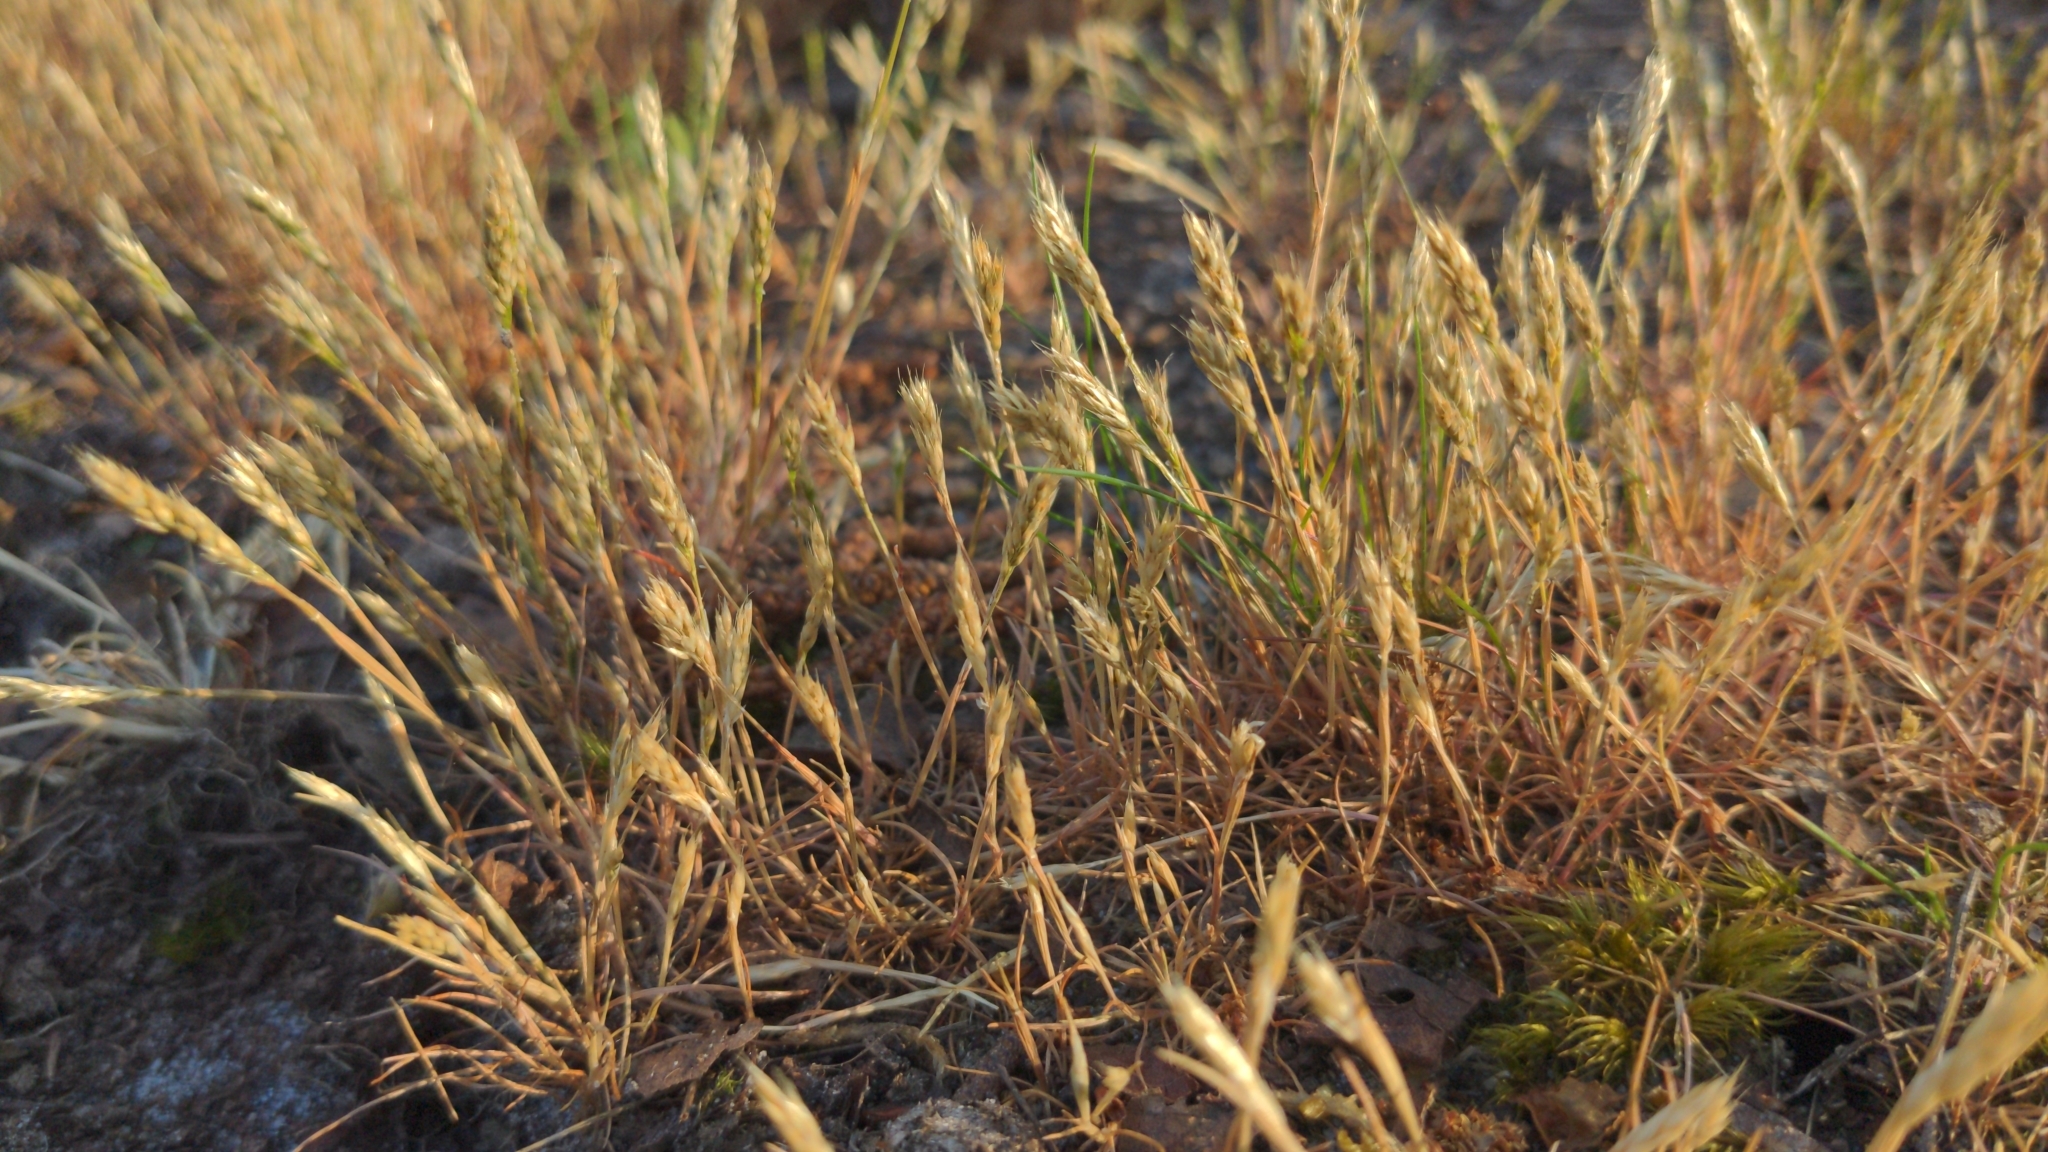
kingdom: Plantae
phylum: Tracheophyta
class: Liliopsida
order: Poales
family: Poaceae
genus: Aira
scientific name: Aira praecox
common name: Early hair-grass
